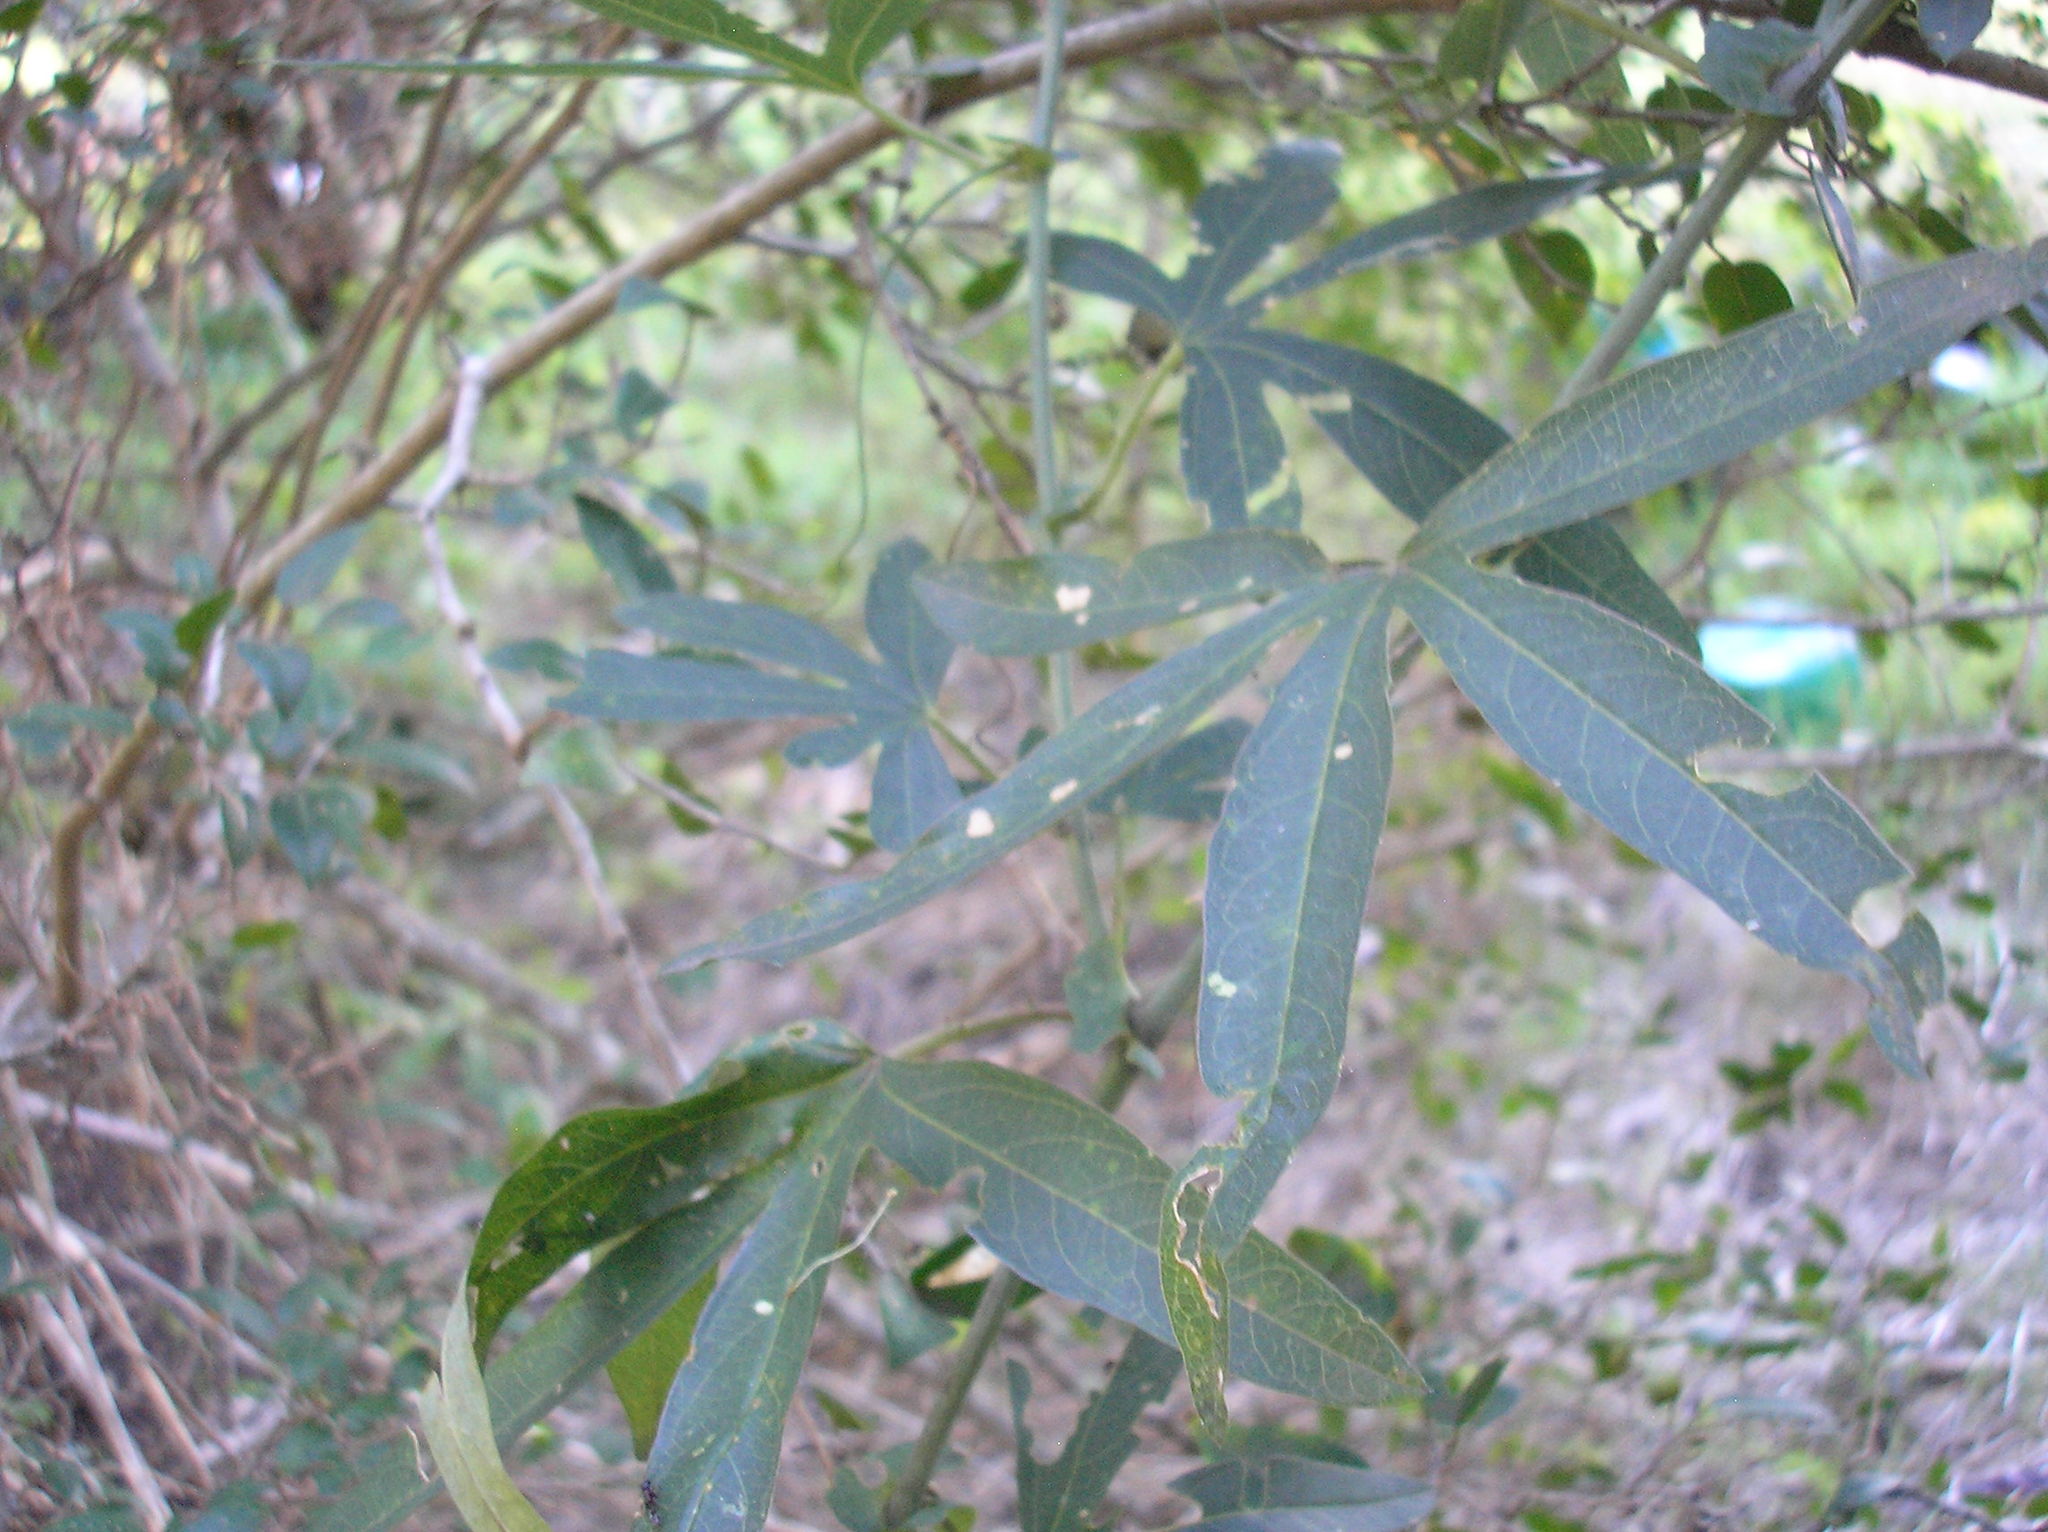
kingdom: Plantae
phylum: Tracheophyta
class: Magnoliopsida
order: Malpighiales
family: Passifloraceae
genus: Passiflora
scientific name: Passiflora caerulea
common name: Blue passionflower
